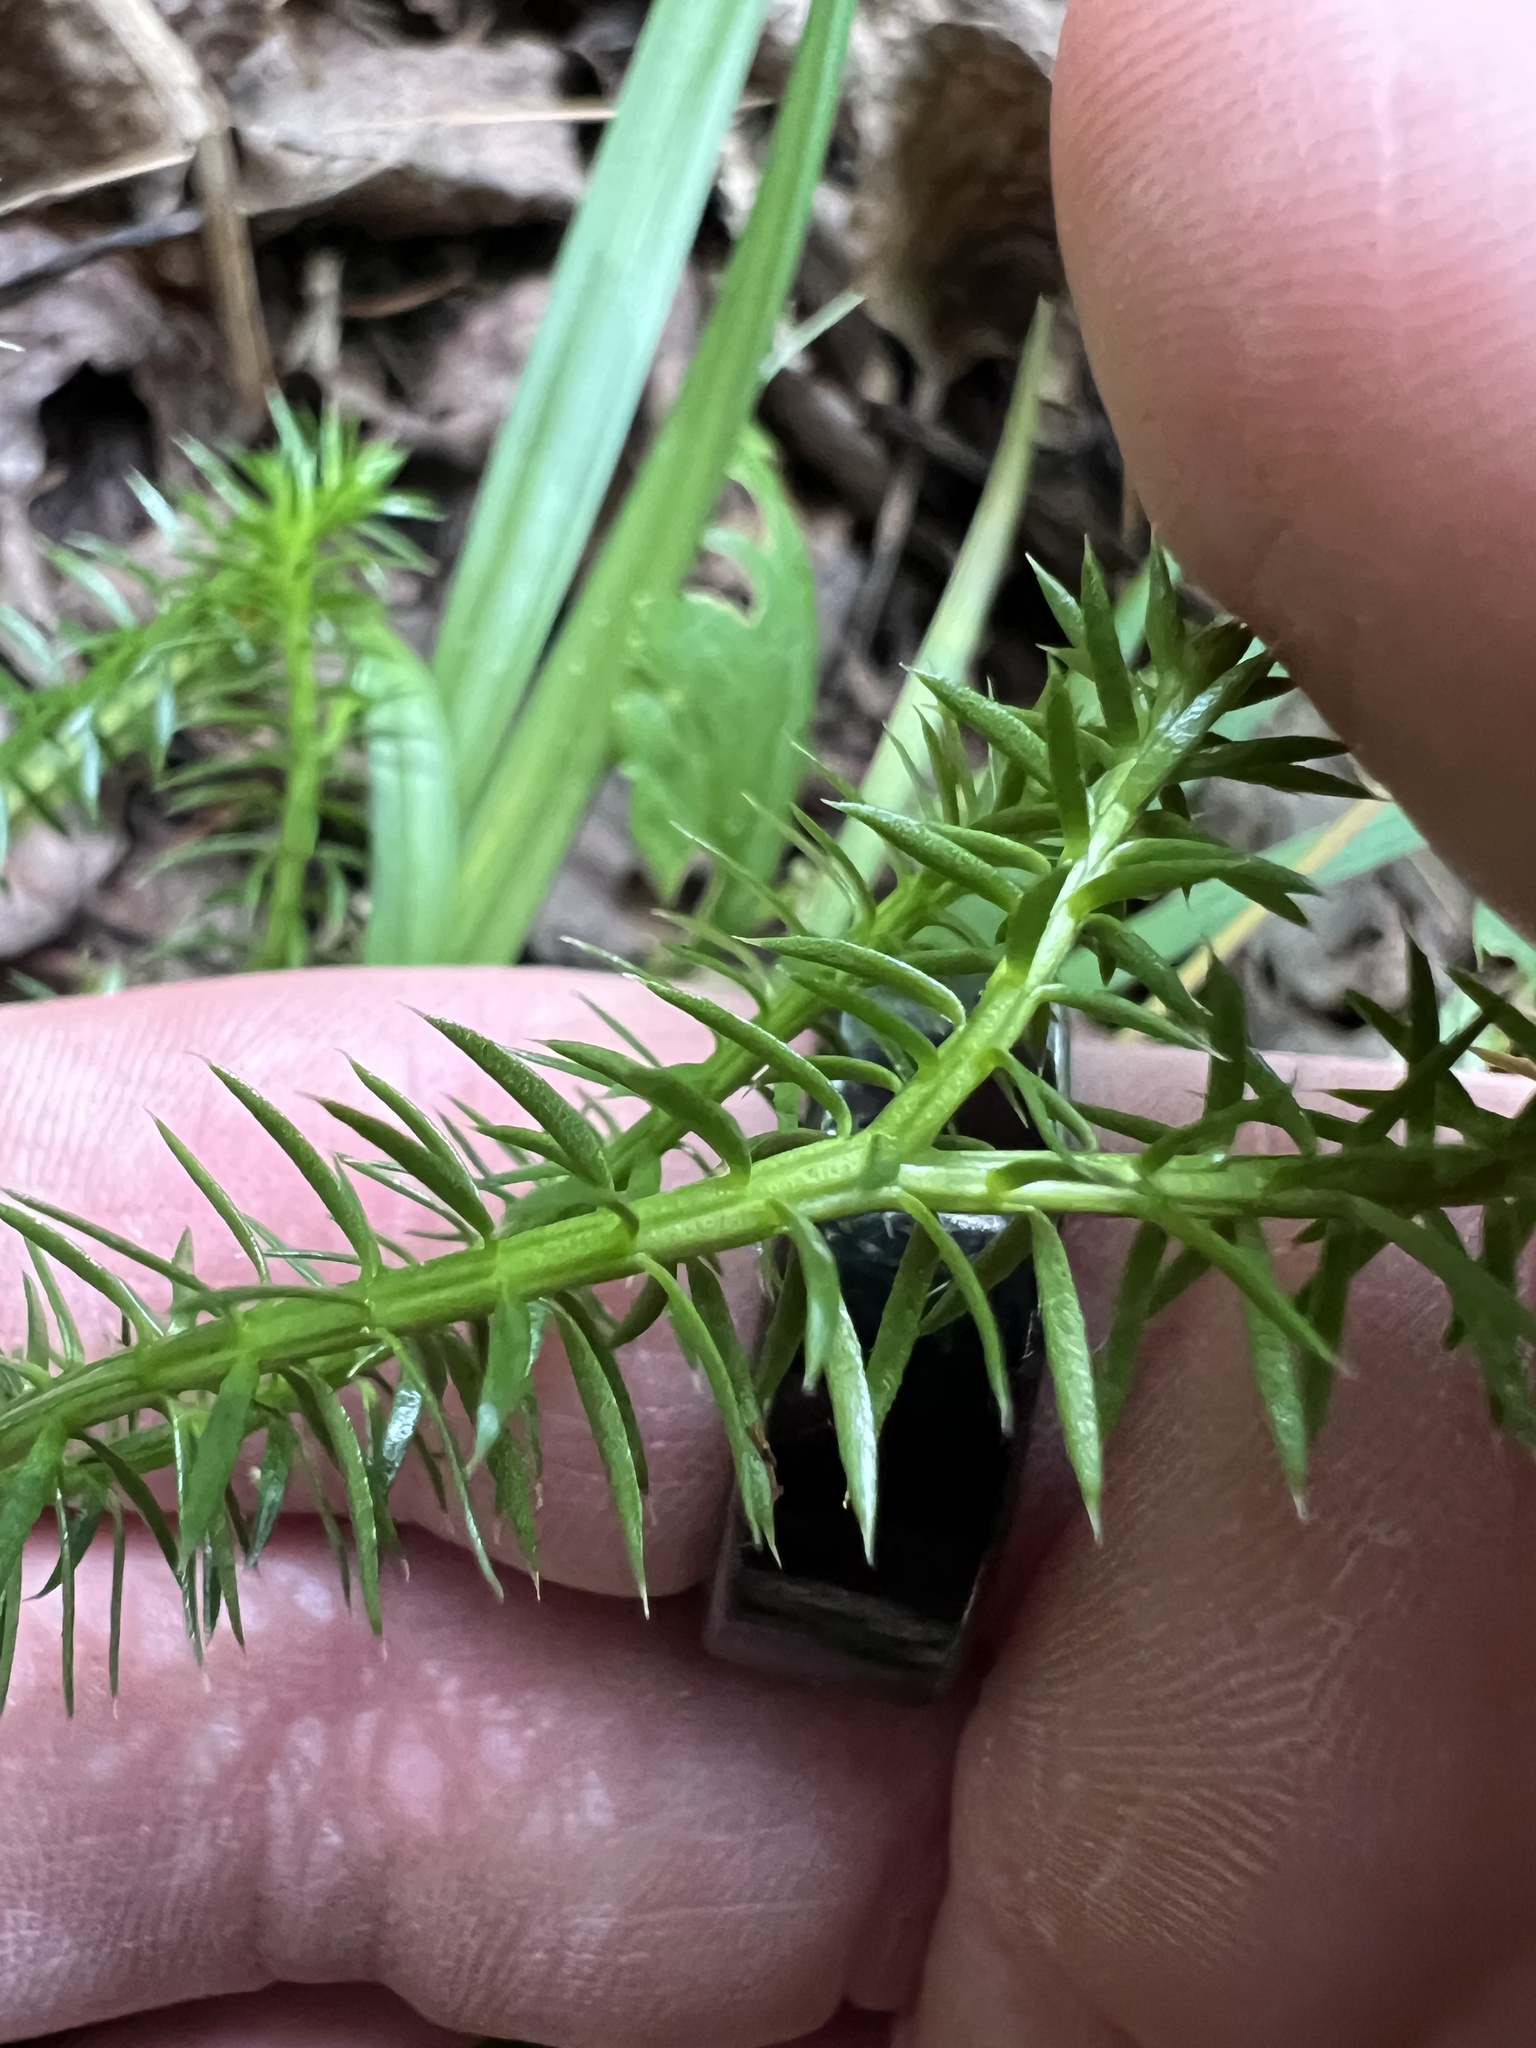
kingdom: Plantae
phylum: Tracheophyta
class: Lycopodiopsida
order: Lycopodiales
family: Lycopodiaceae
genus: Spinulum
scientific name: Spinulum annotinum
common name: Interrupted club-moss
